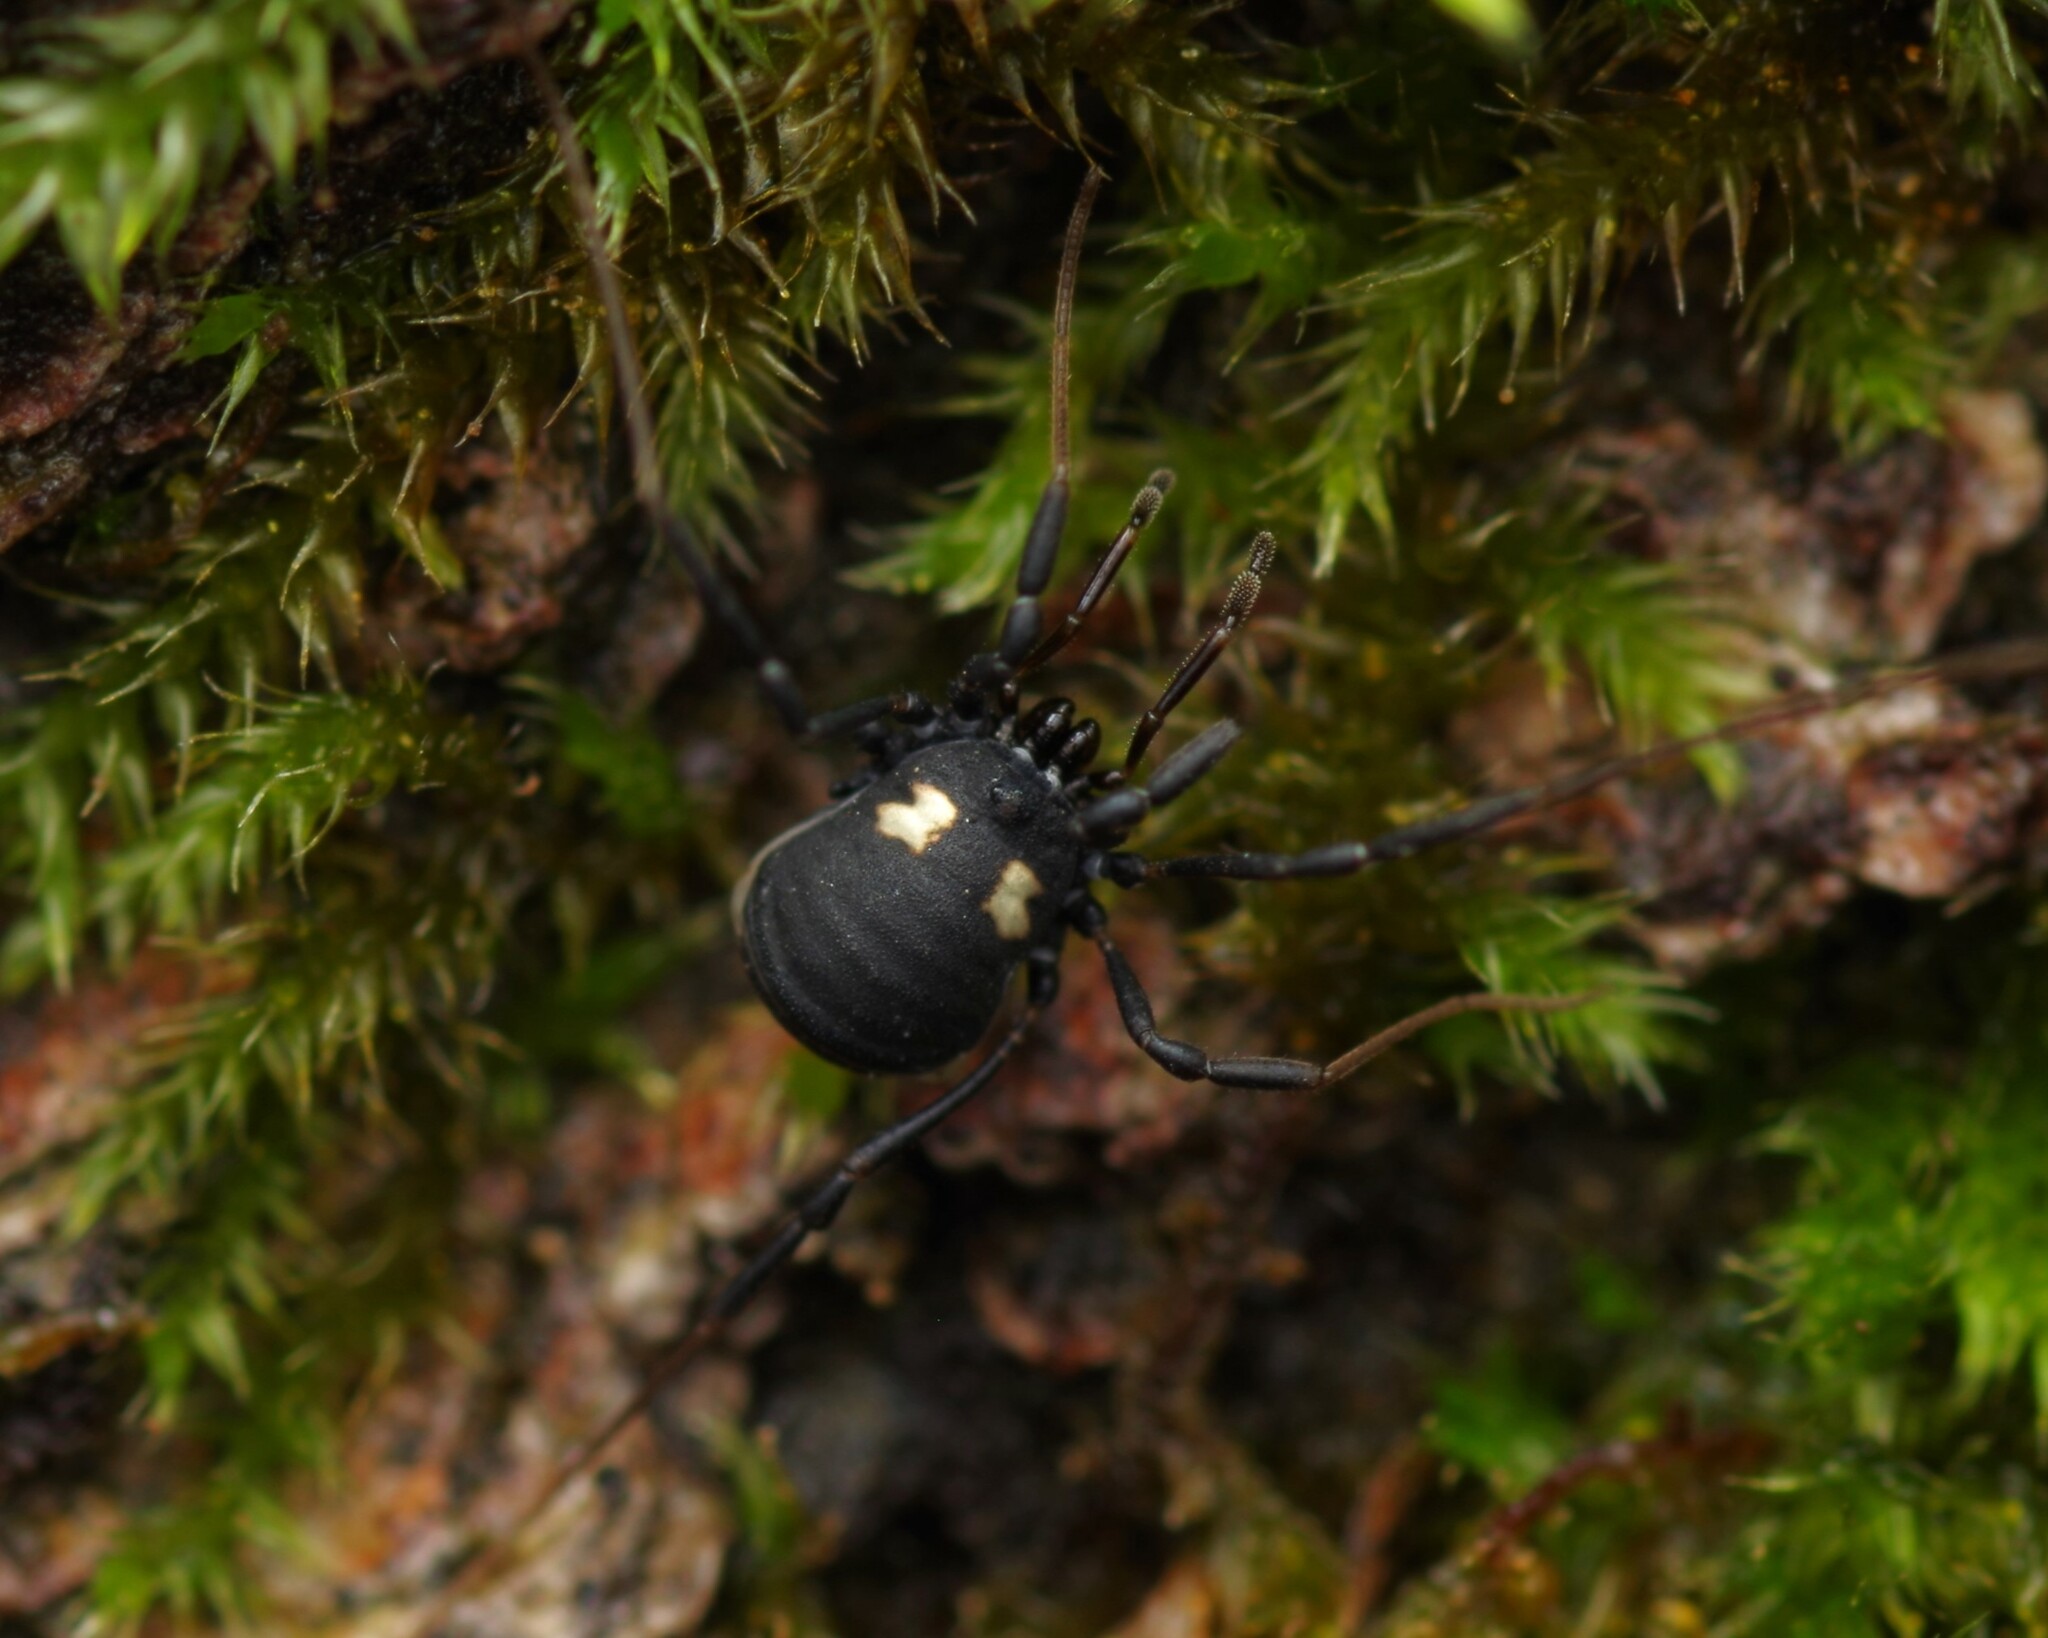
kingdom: Animalia
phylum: Arthropoda
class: Arachnida
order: Opiliones
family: Nemastomatidae
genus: Nemastoma
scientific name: Nemastoma bimaculatum
